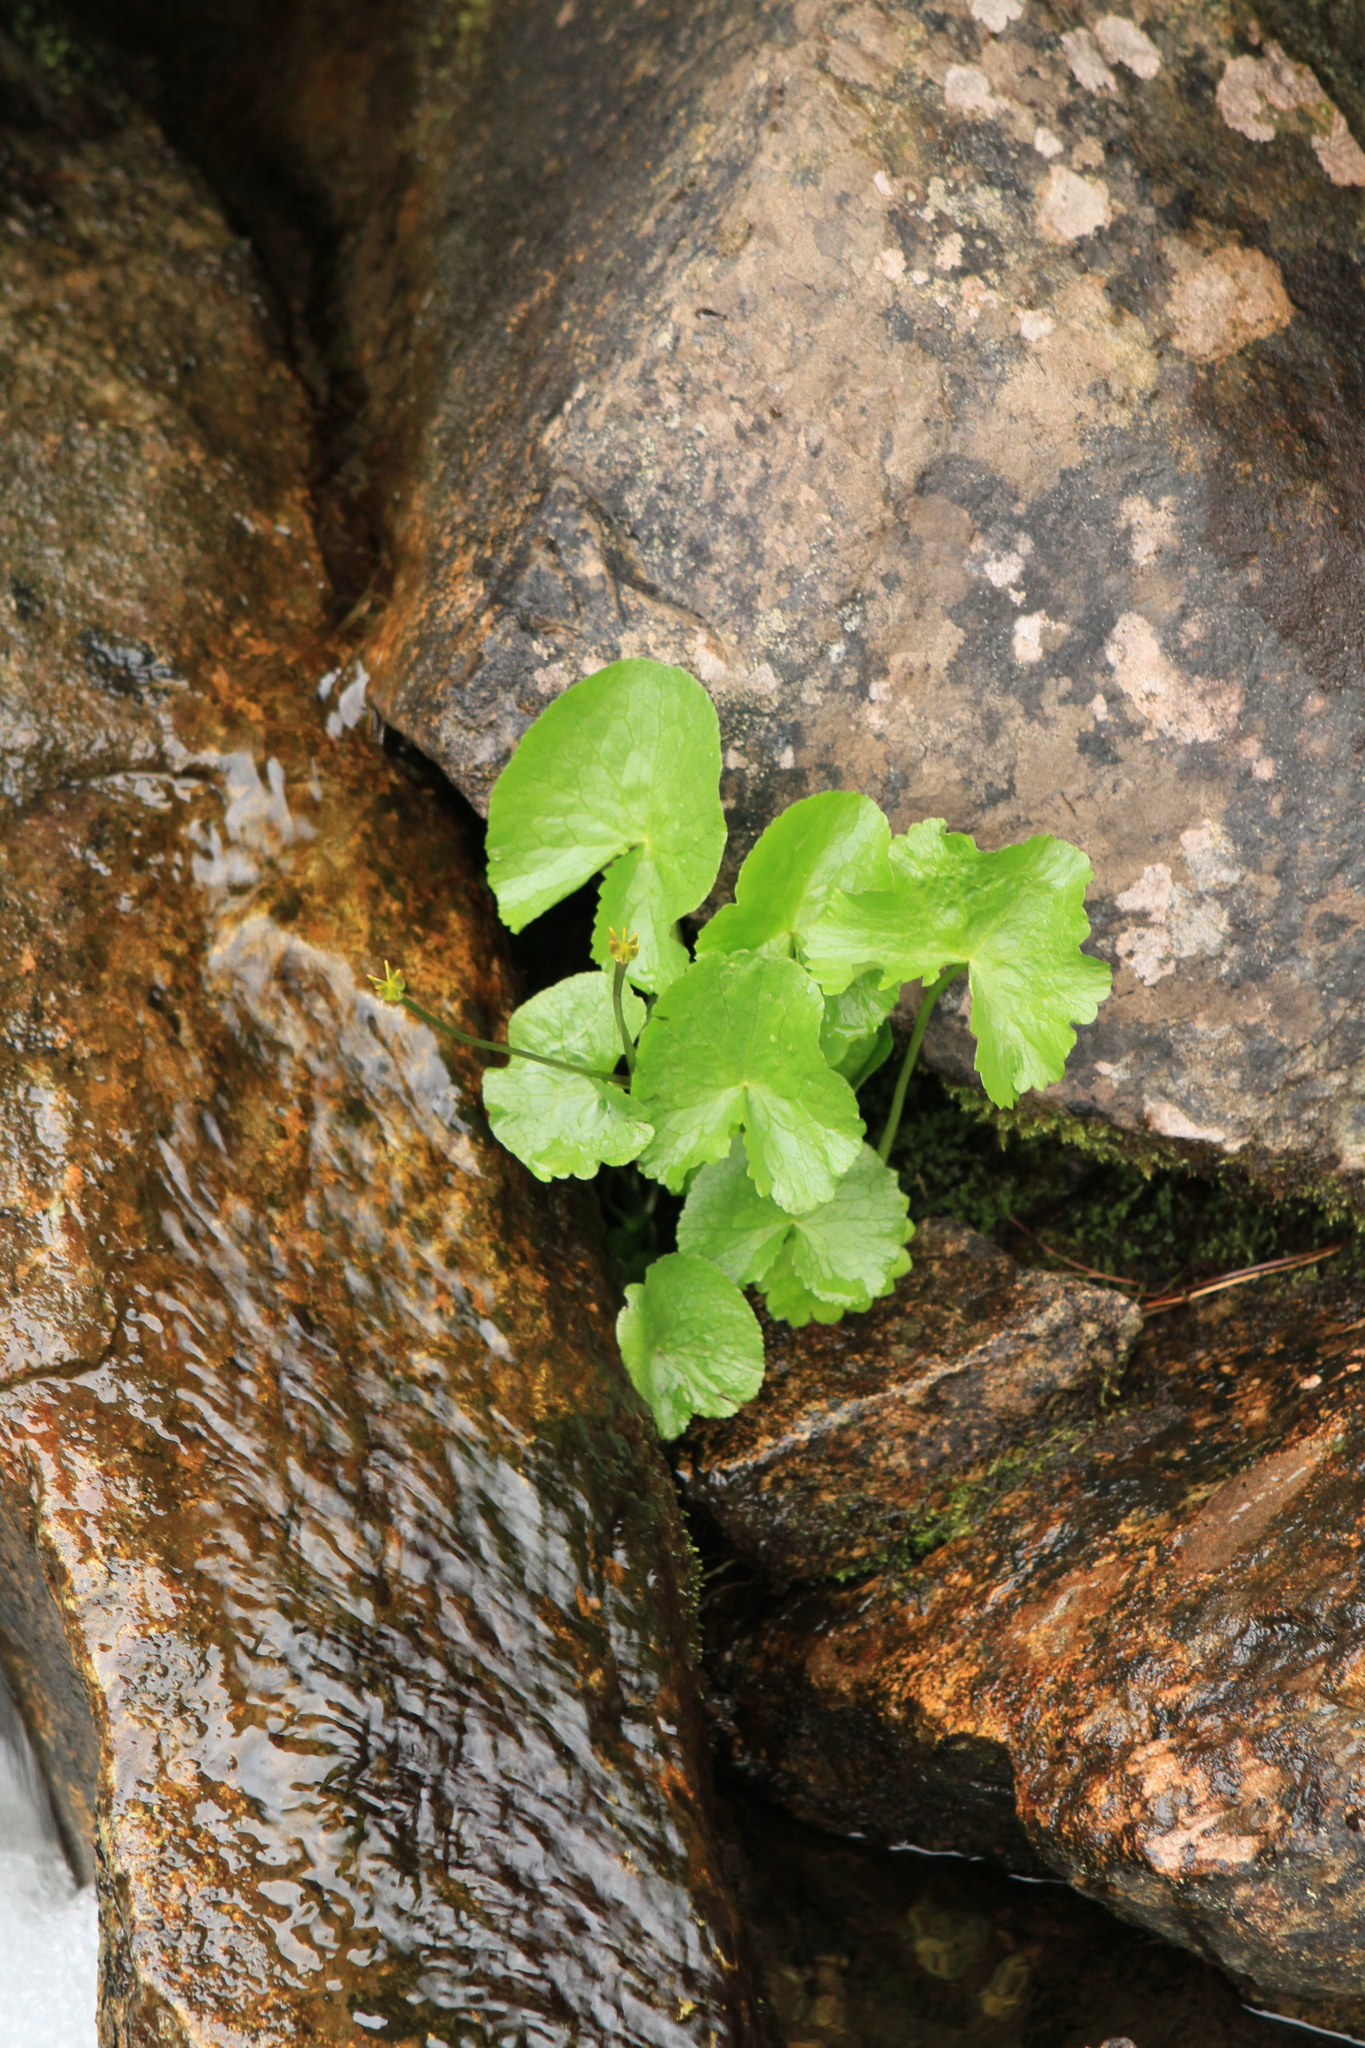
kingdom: Plantae
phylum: Tracheophyta
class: Magnoliopsida
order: Ranunculales
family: Ranunculaceae
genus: Caltha
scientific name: Caltha palustris
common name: Marsh marigold
